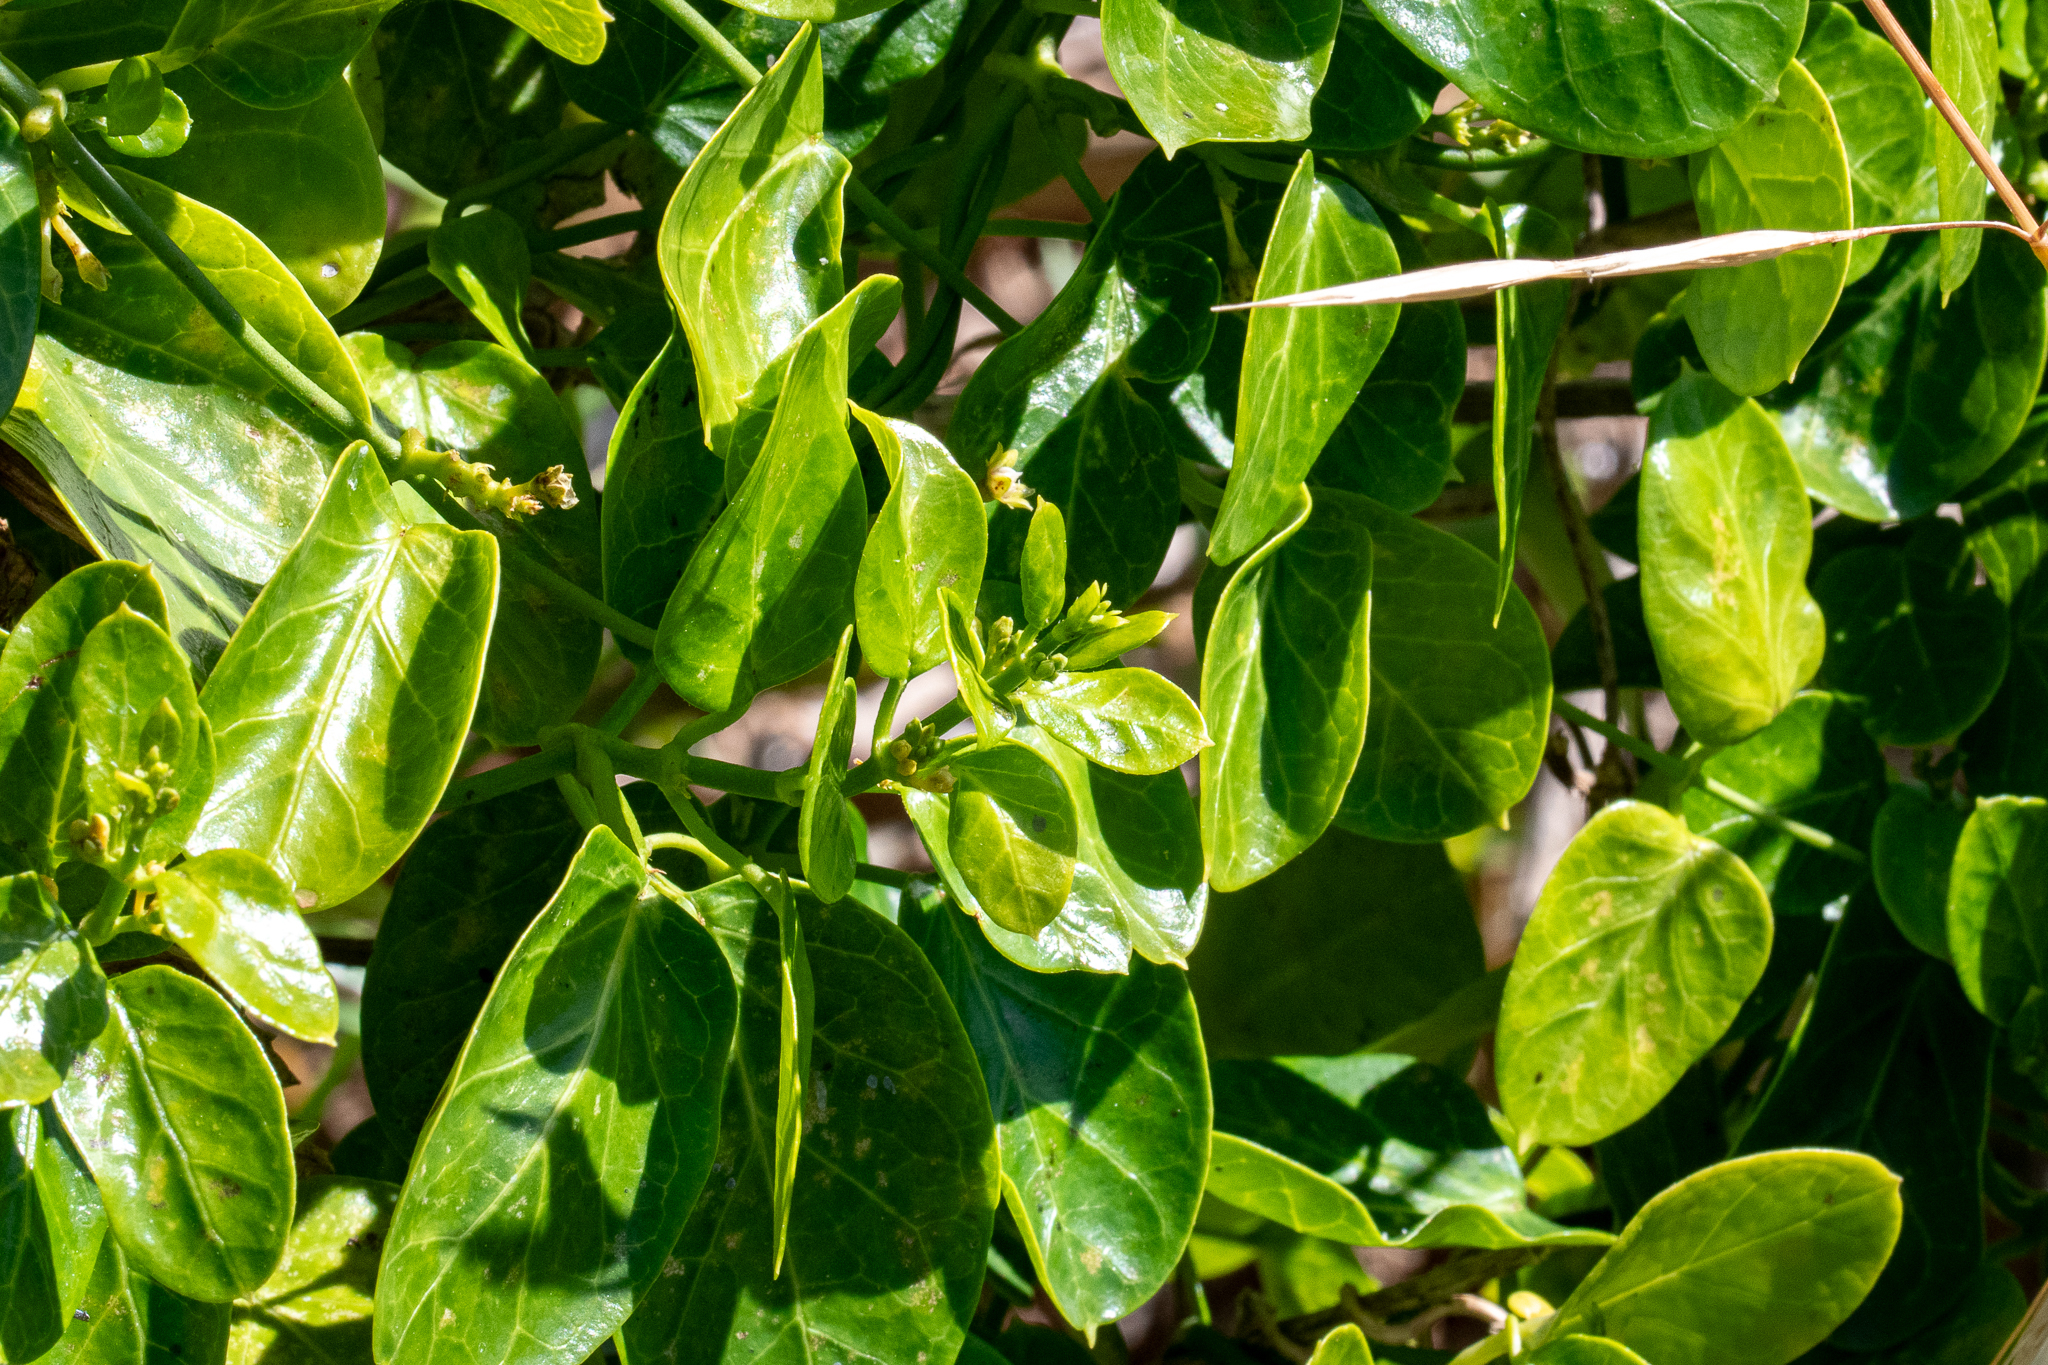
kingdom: Plantae
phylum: Tracheophyta
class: Magnoliopsida
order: Gentianales
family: Apocynaceae
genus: Cynanchum
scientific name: Cynanchum obtusifolium
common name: Monkey-rope
